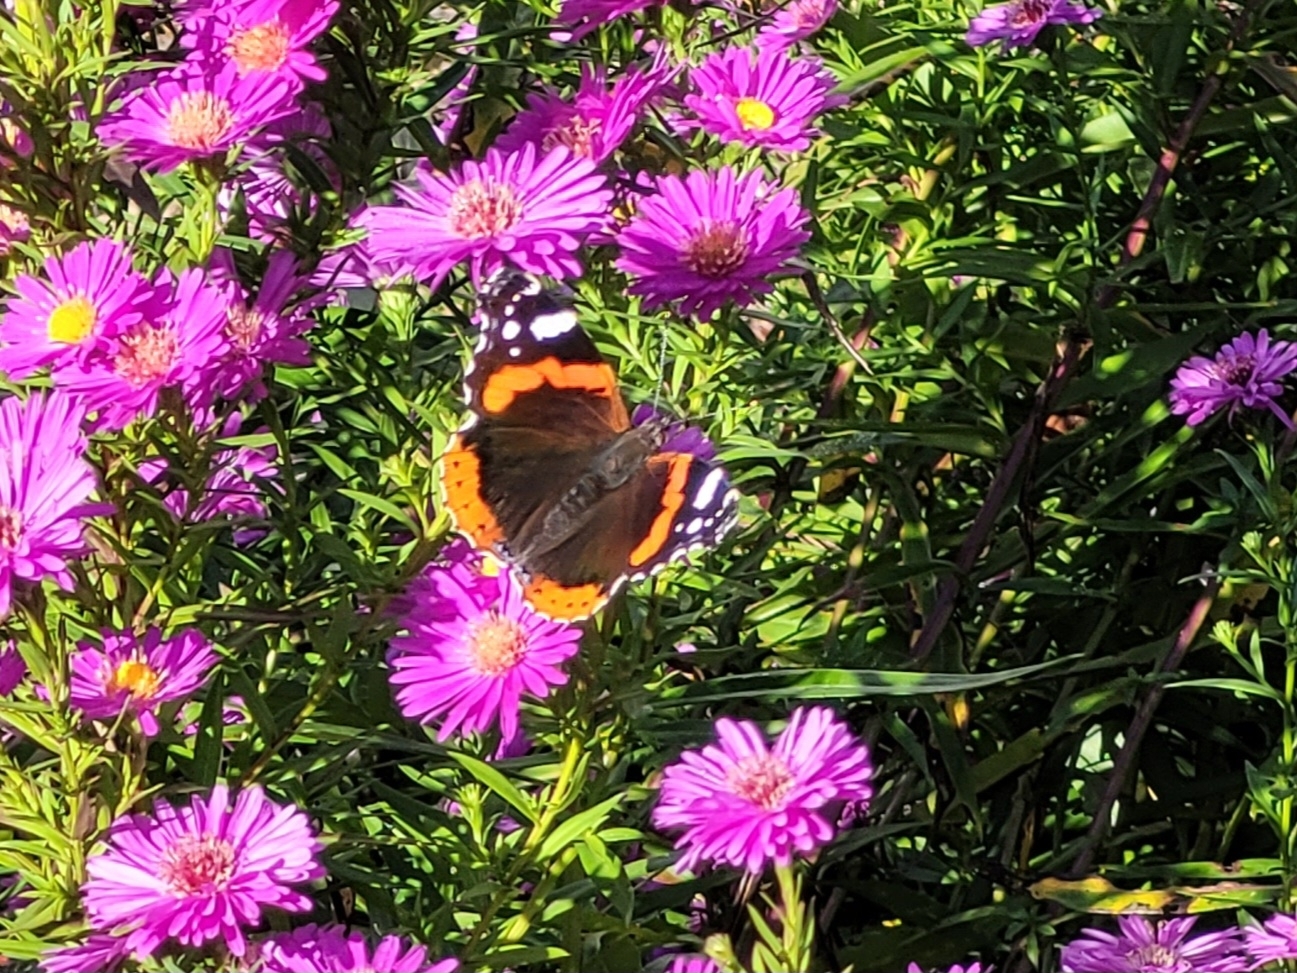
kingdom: Animalia
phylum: Arthropoda
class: Insecta
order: Lepidoptera
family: Nymphalidae
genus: Vanessa
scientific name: Vanessa atalanta
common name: Red admiral
